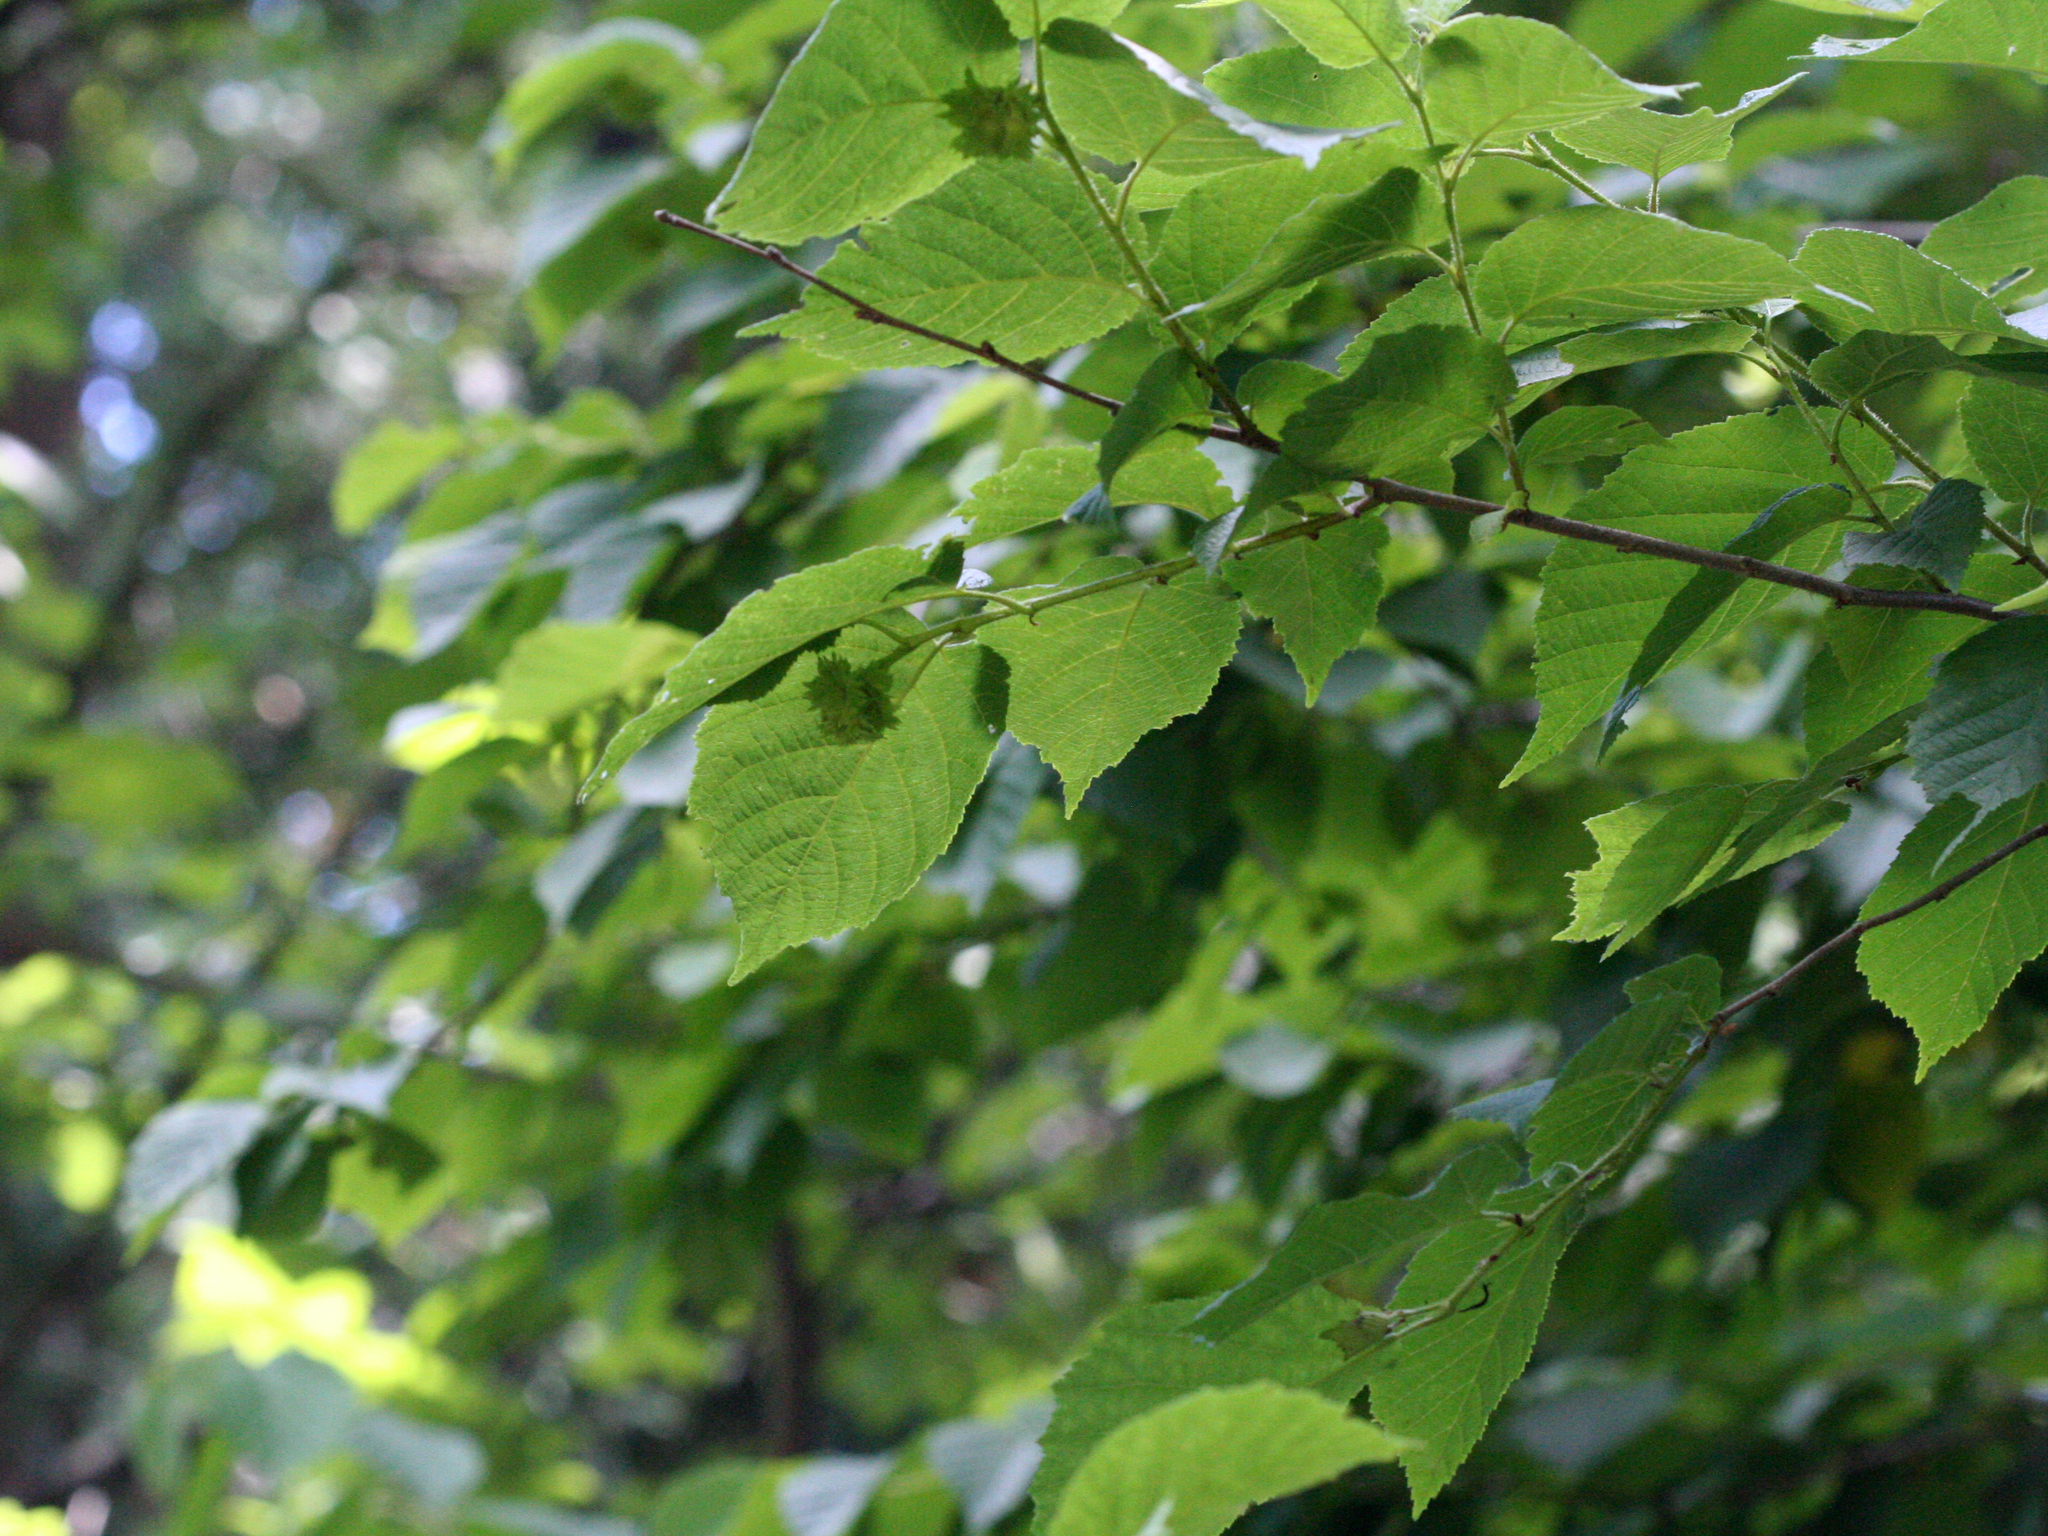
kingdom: Plantae
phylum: Tracheophyta
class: Magnoliopsida
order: Rosales
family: Cannabaceae
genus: Celtis
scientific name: Celtis occidentalis
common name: Common hackberry
